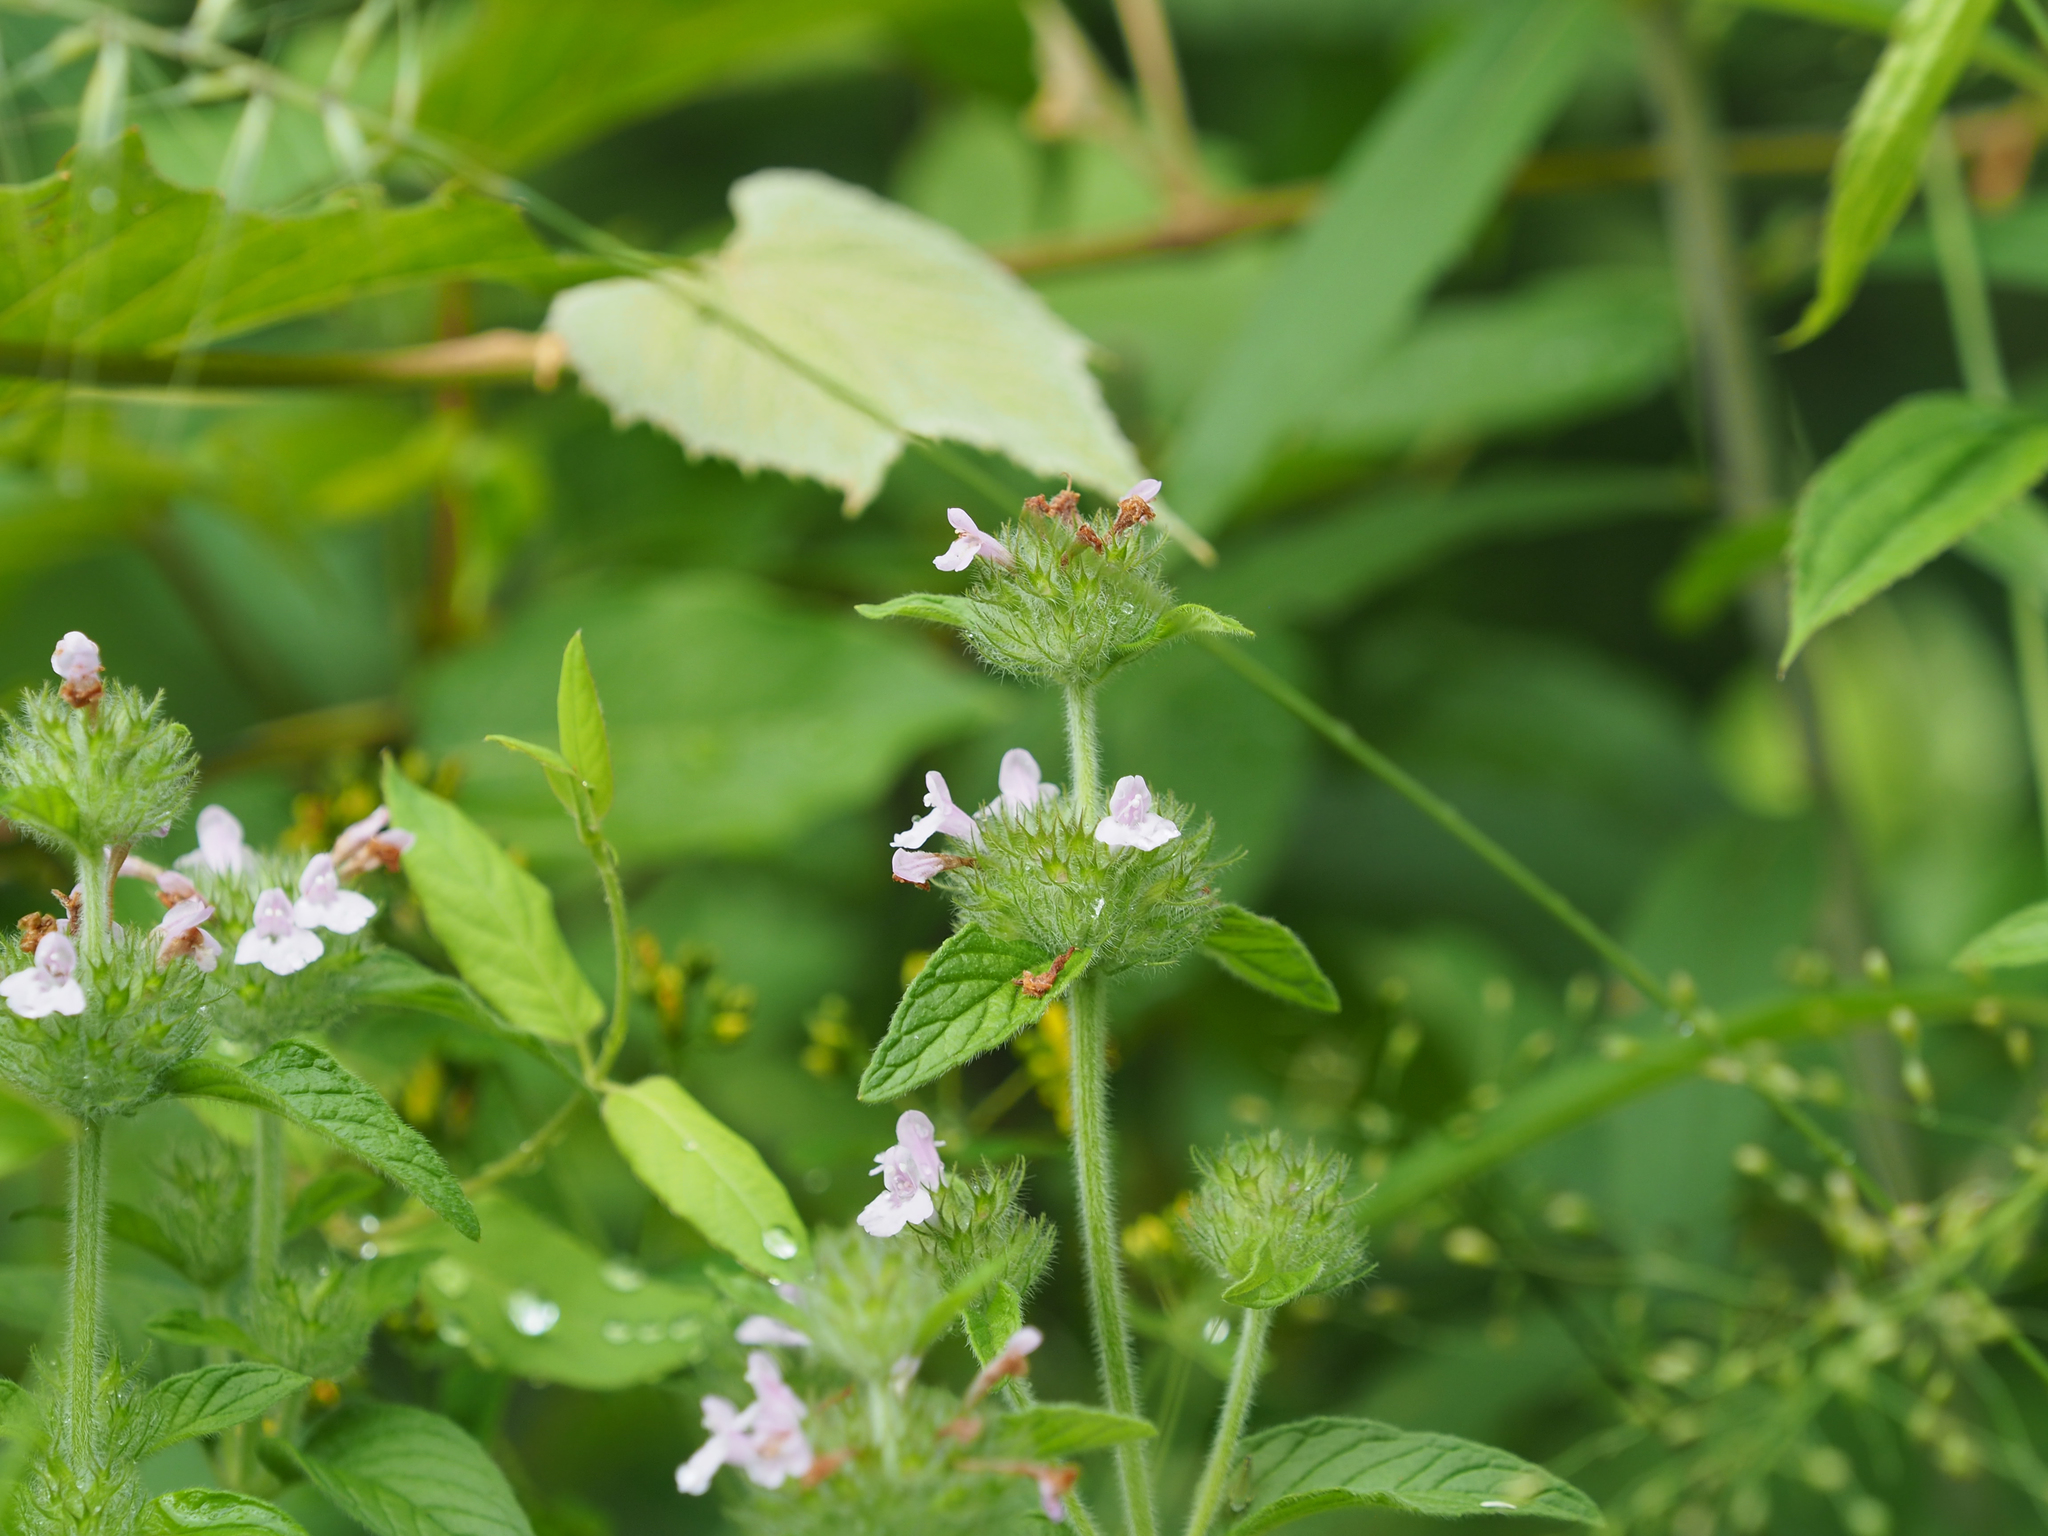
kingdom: Plantae
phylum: Tracheophyta
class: Magnoliopsida
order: Lamiales
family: Lamiaceae
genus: Clinopodium
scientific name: Clinopodium vulgare
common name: Wild basil
